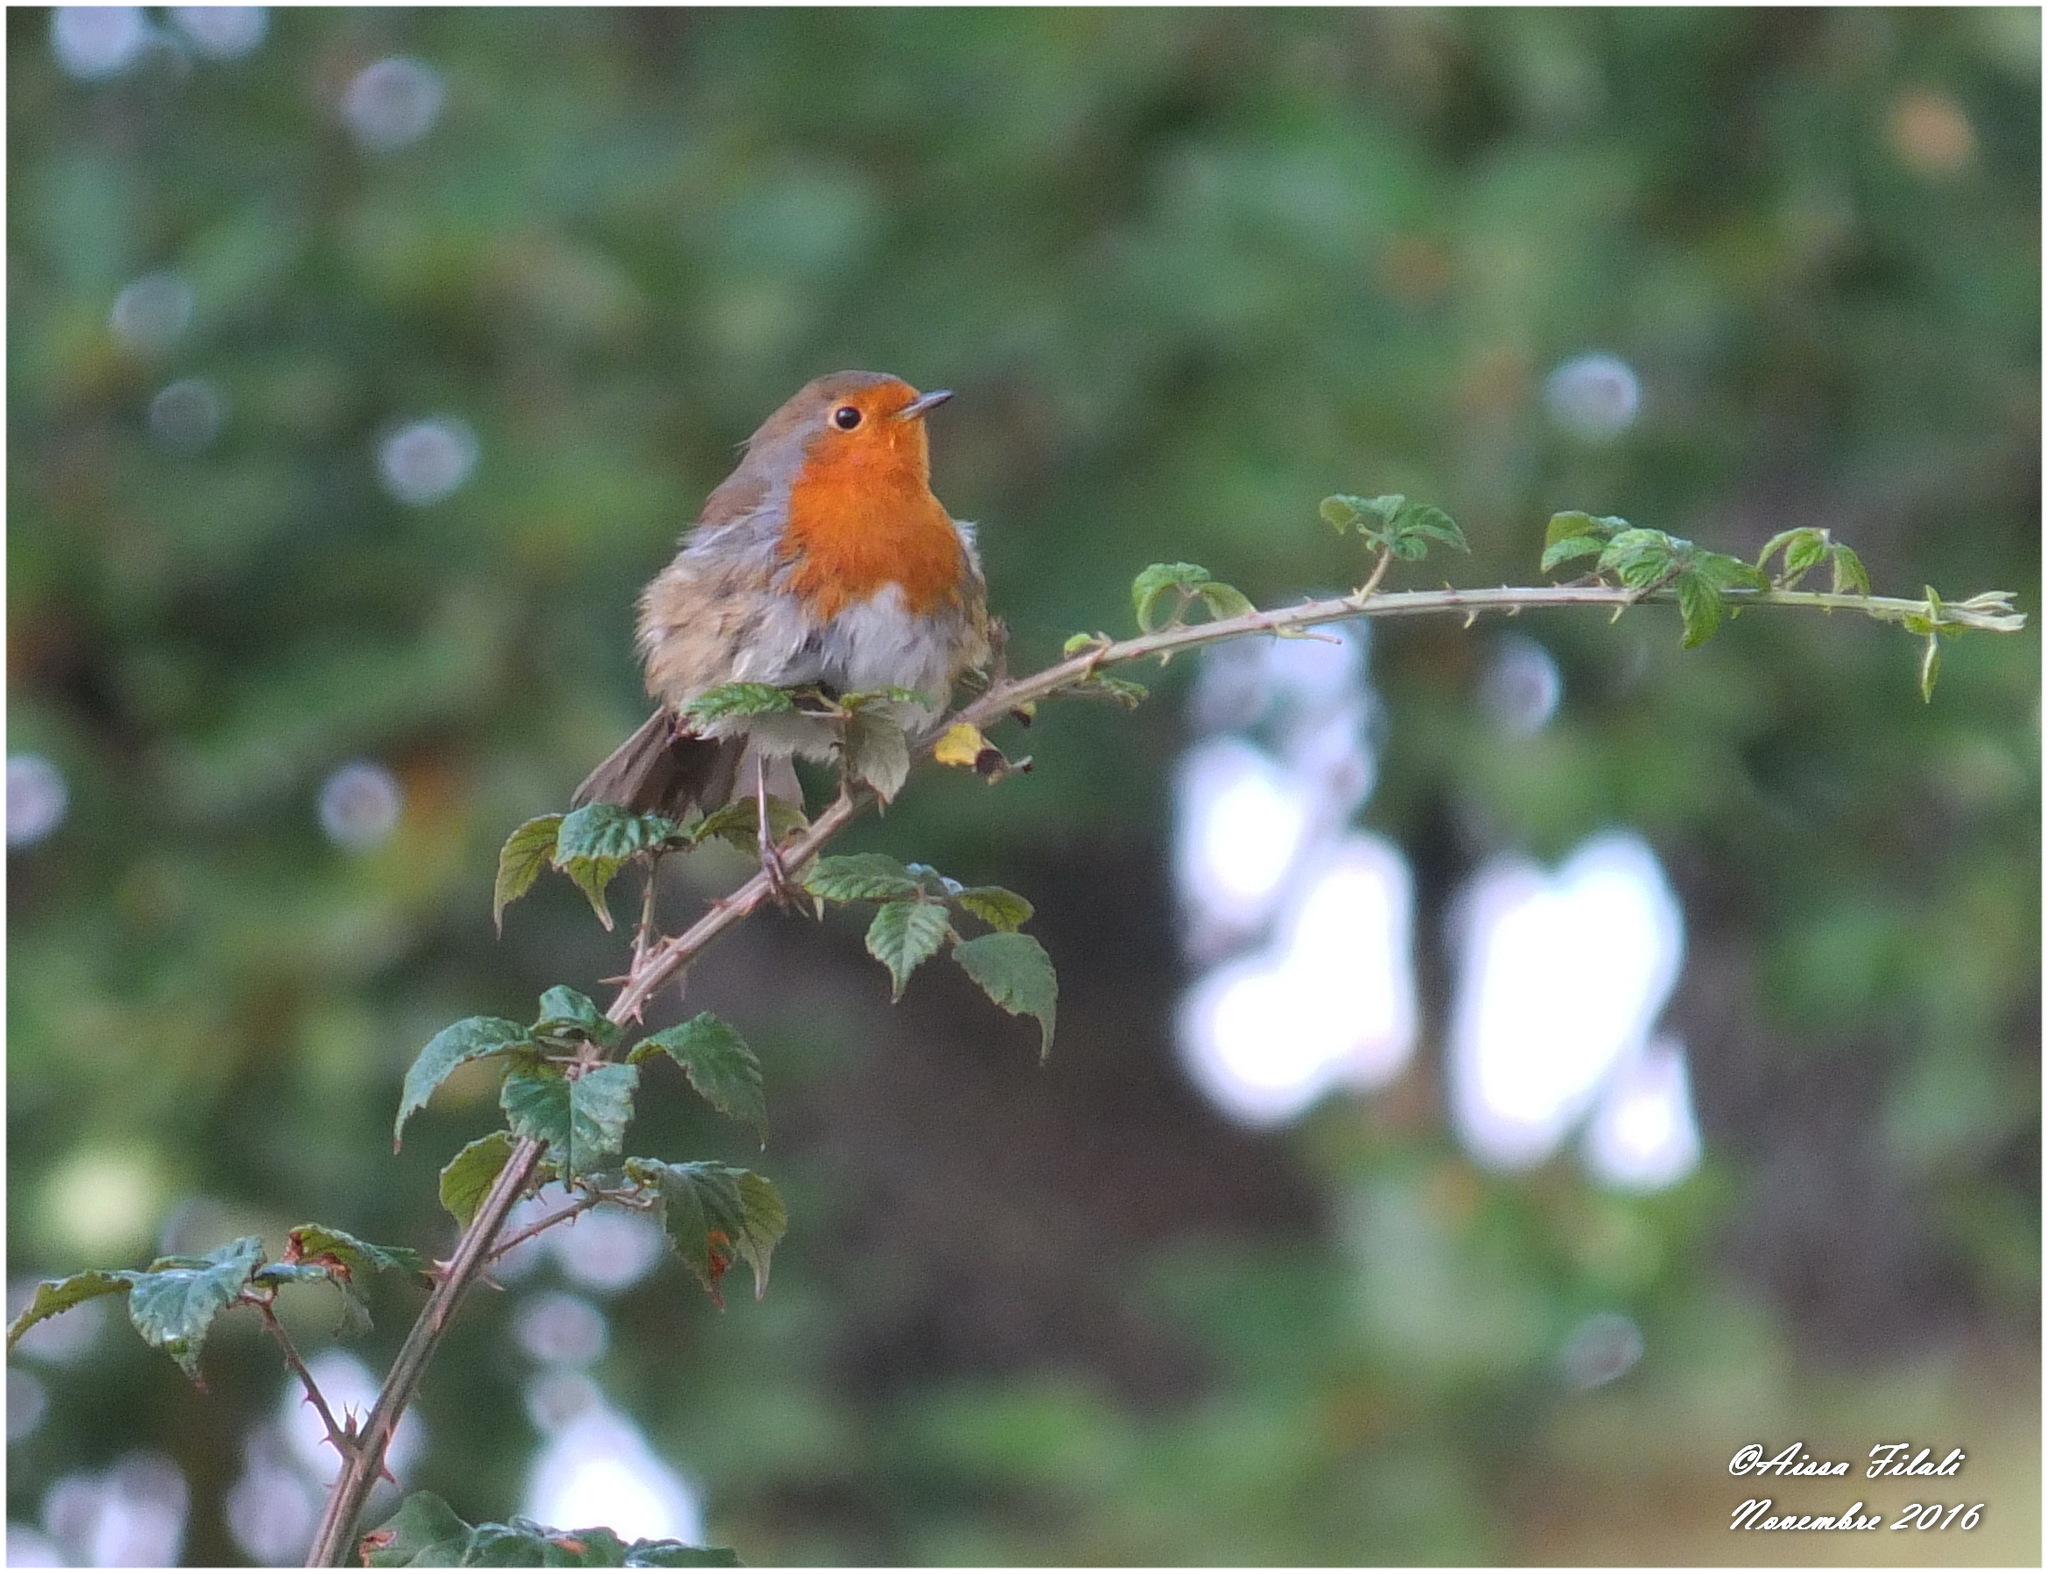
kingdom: Animalia
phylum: Chordata
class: Aves
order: Passeriformes
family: Muscicapidae
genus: Erithacus
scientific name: Erithacus rubecula
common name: European robin
